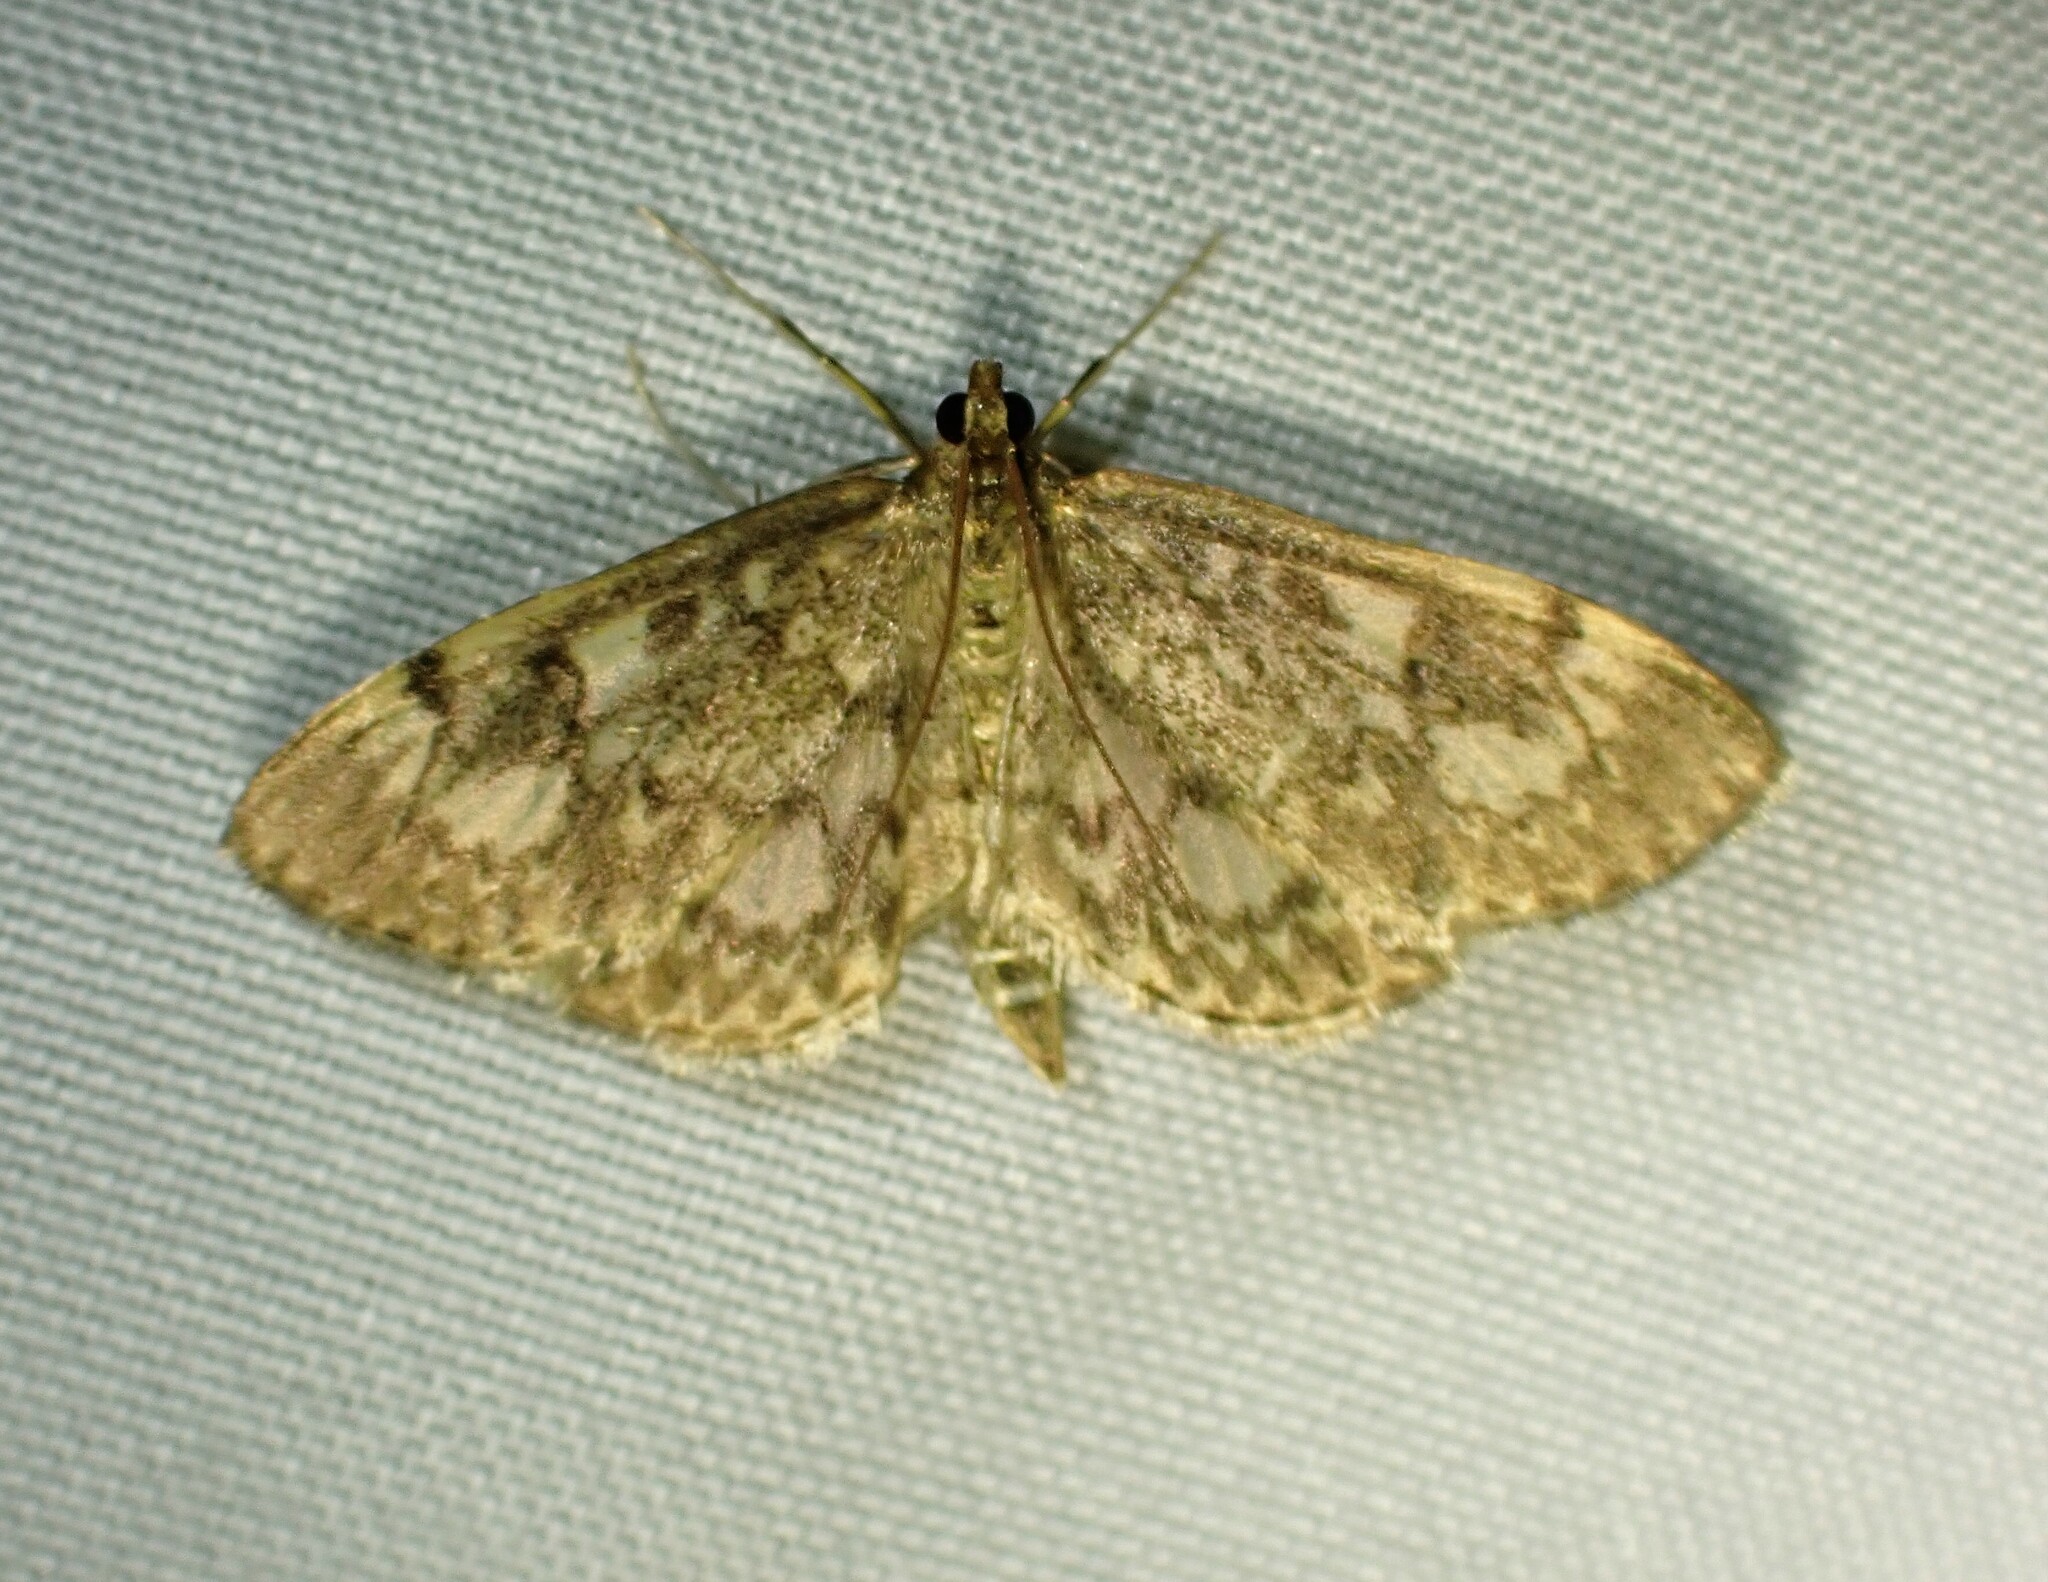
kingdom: Animalia
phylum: Arthropoda
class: Insecta
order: Lepidoptera
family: Crambidae
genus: Anania
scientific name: Anania
